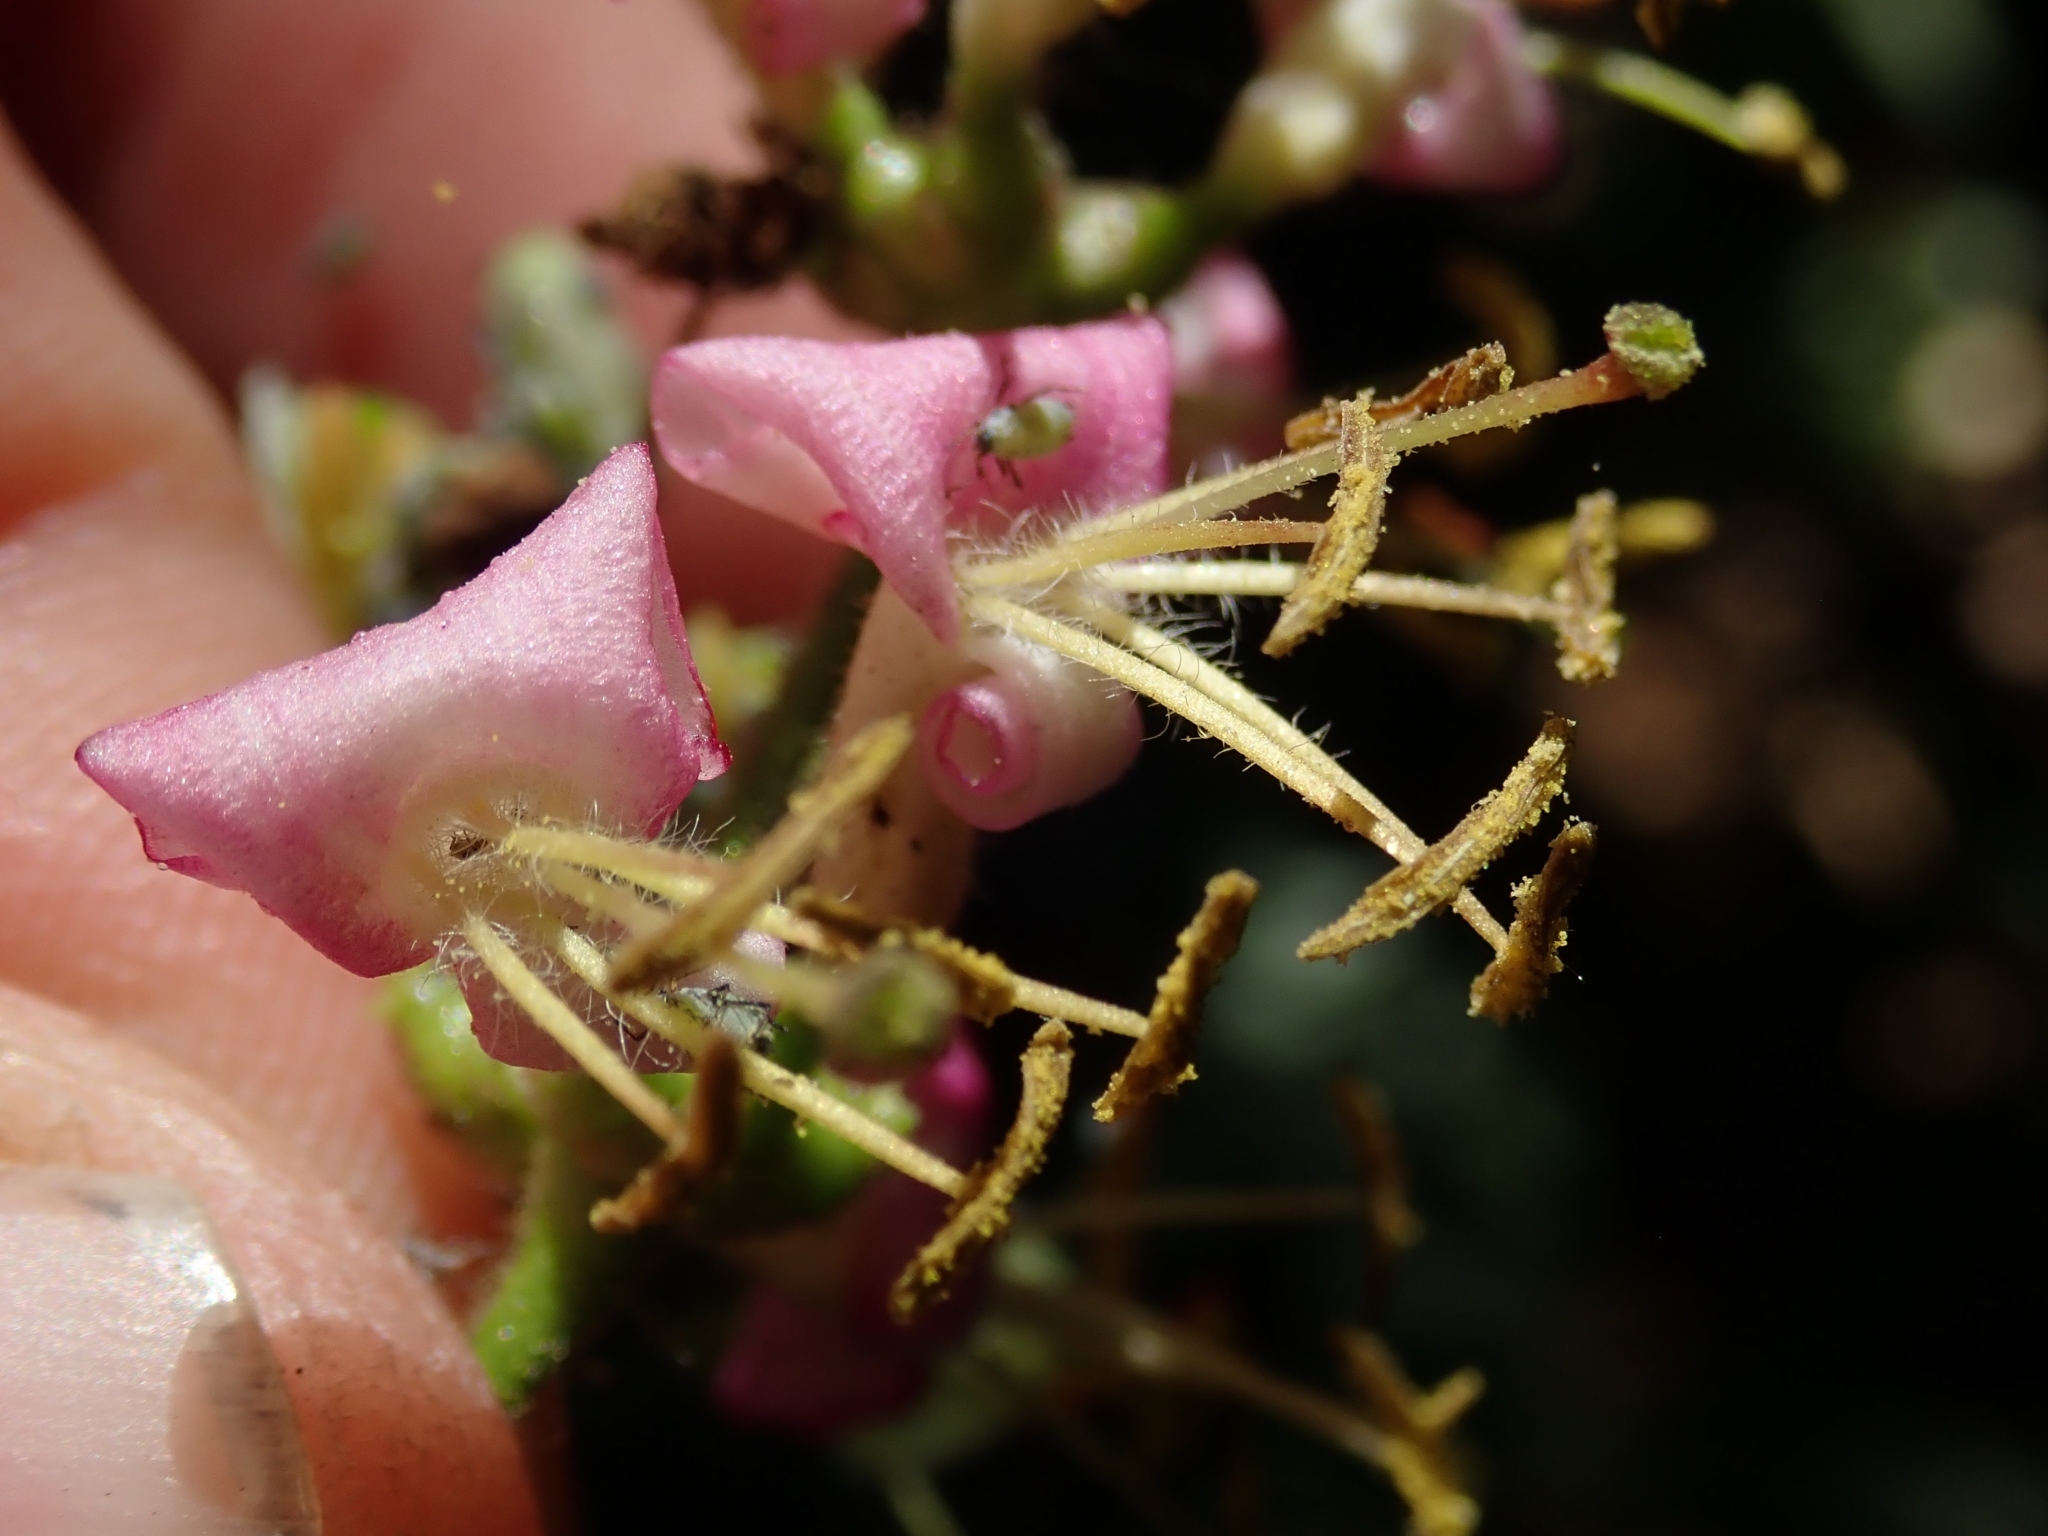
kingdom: Plantae
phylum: Tracheophyta
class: Magnoliopsida
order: Dipsacales
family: Caprifoliaceae
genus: Lonicera
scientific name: Lonicera hispidula
